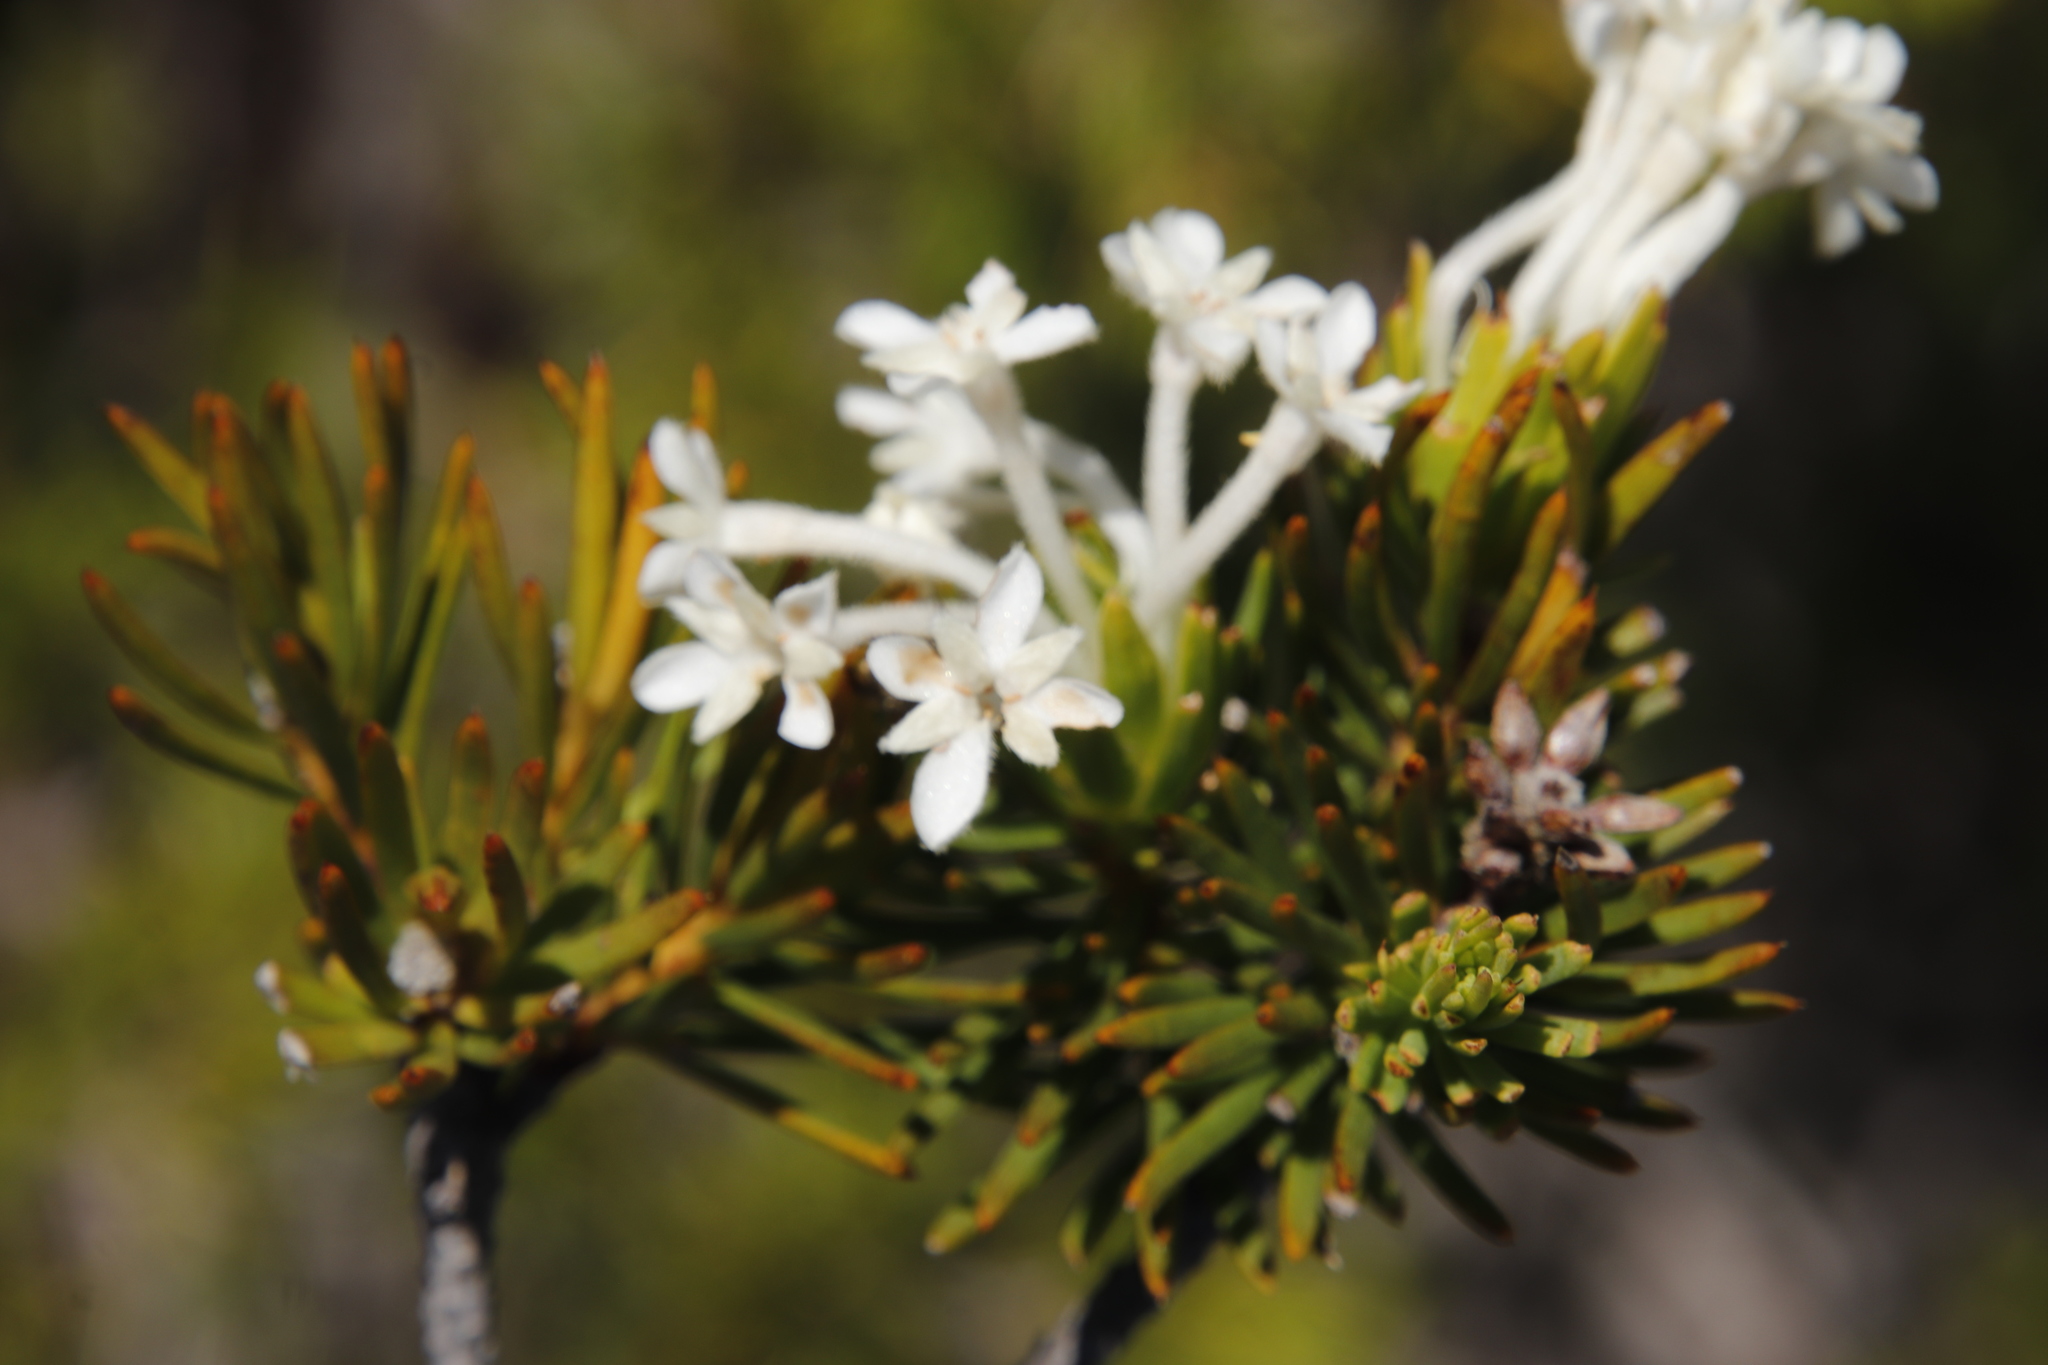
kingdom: Plantae
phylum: Tracheophyta
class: Magnoliopsida
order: Malvales
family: Thymelaeaceae
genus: Gnidia
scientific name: Gnidia pinifolia
